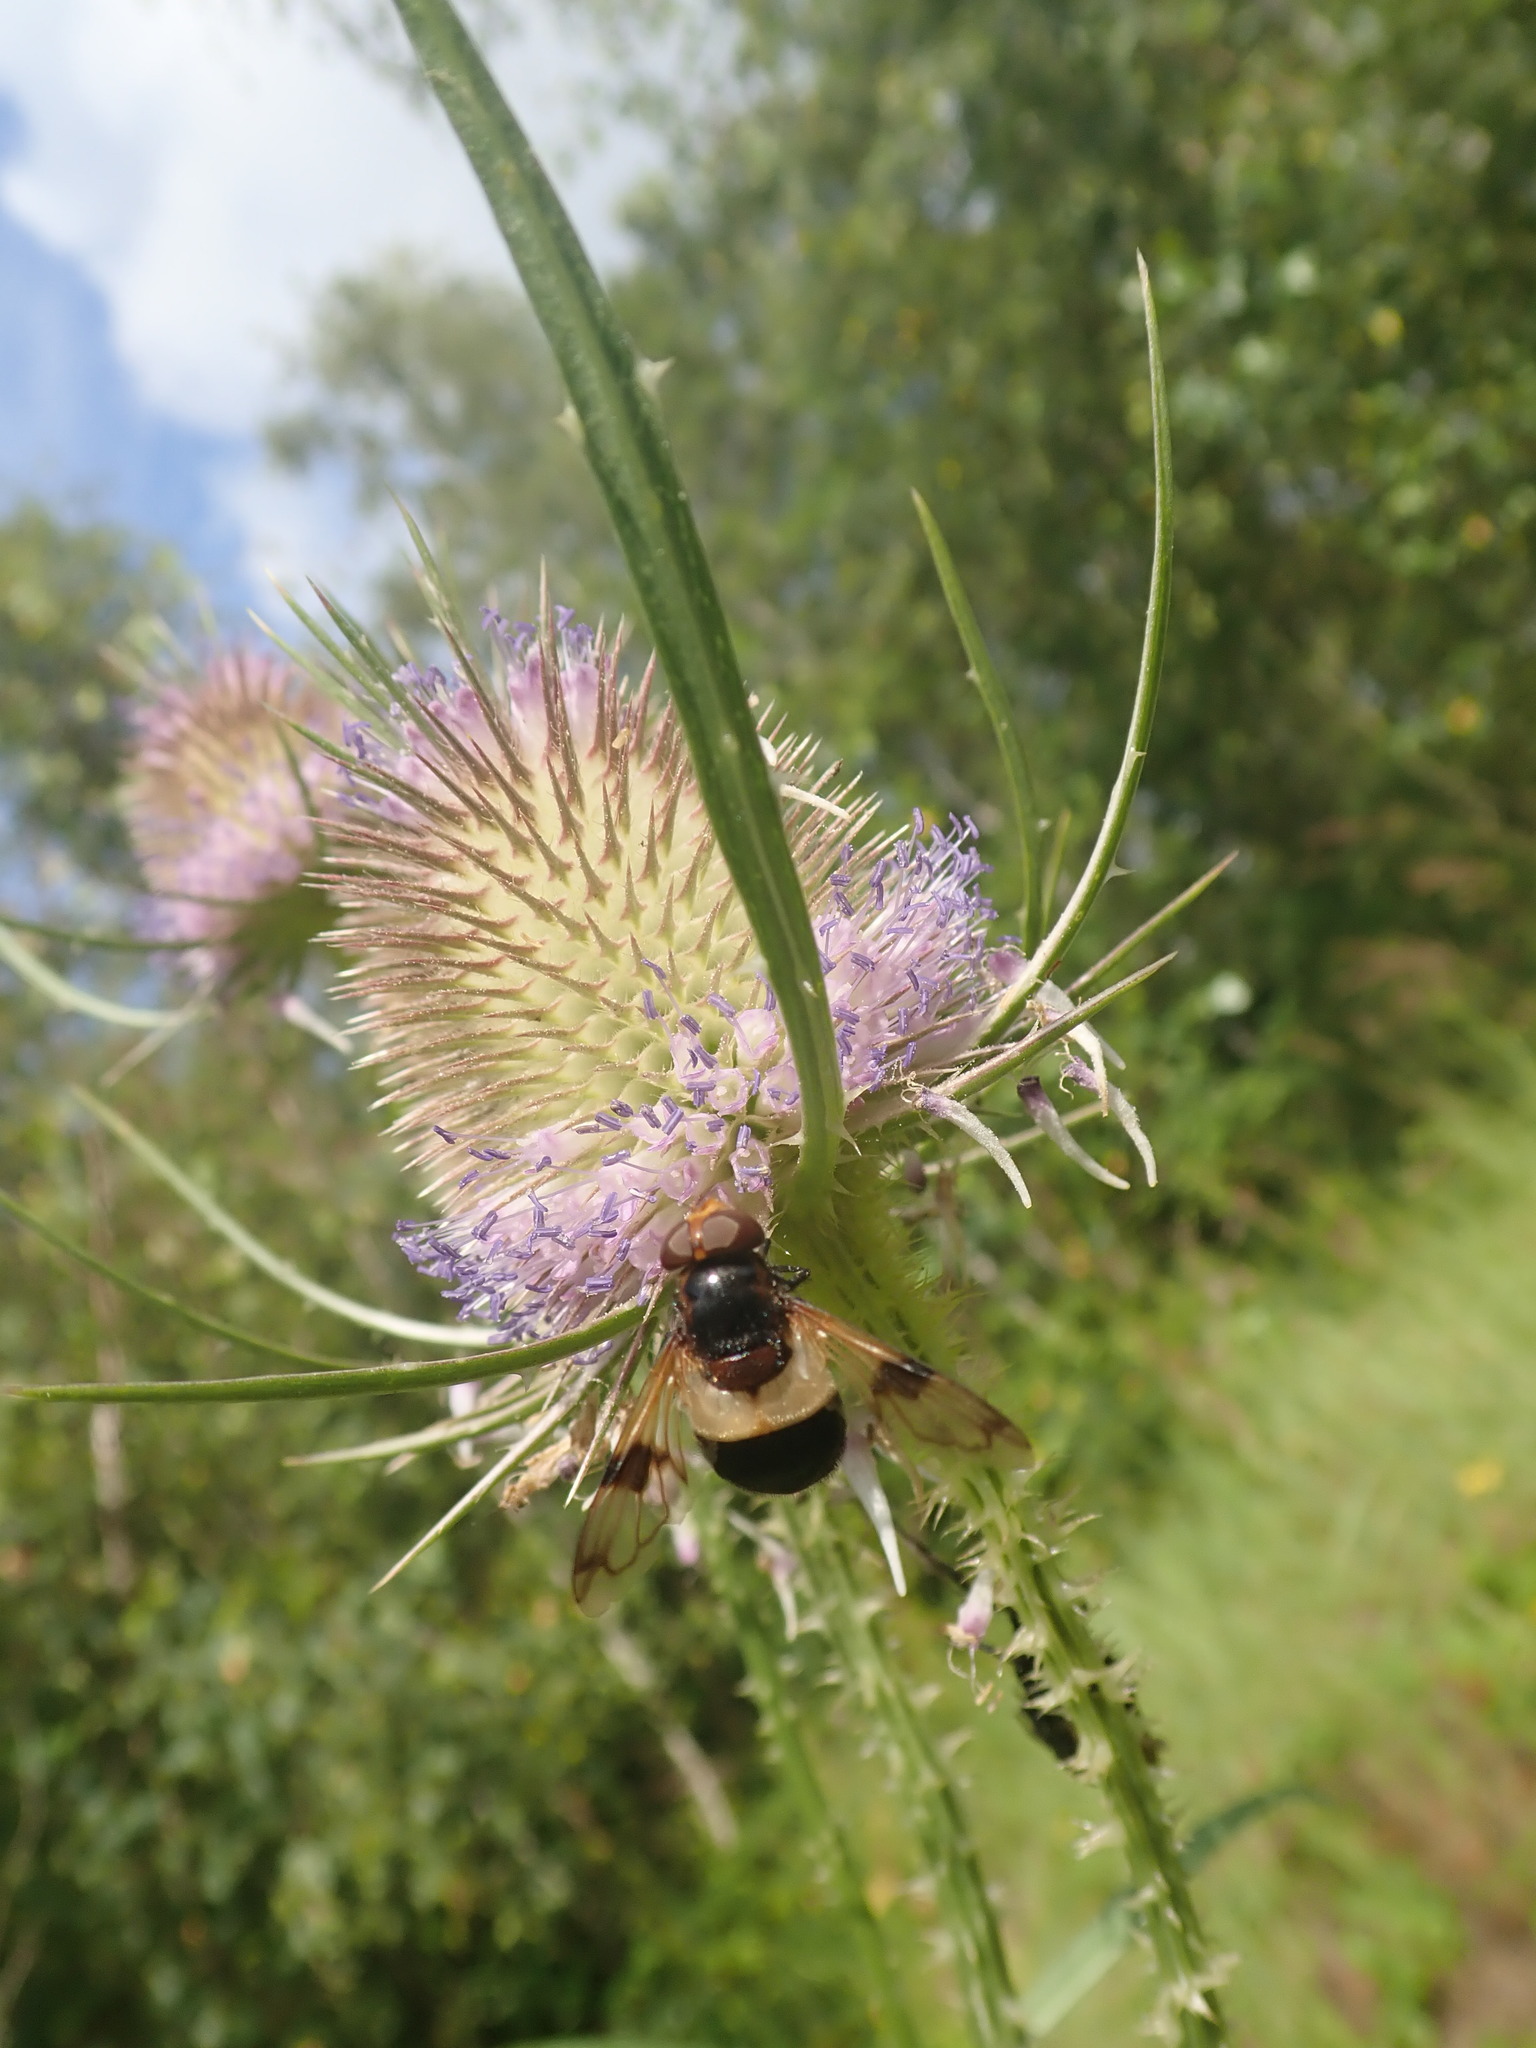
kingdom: Animalia
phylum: Arthropoda
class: Insecta
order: Diptera
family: Syrphidae
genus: Volucella
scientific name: Volucella pellucens
